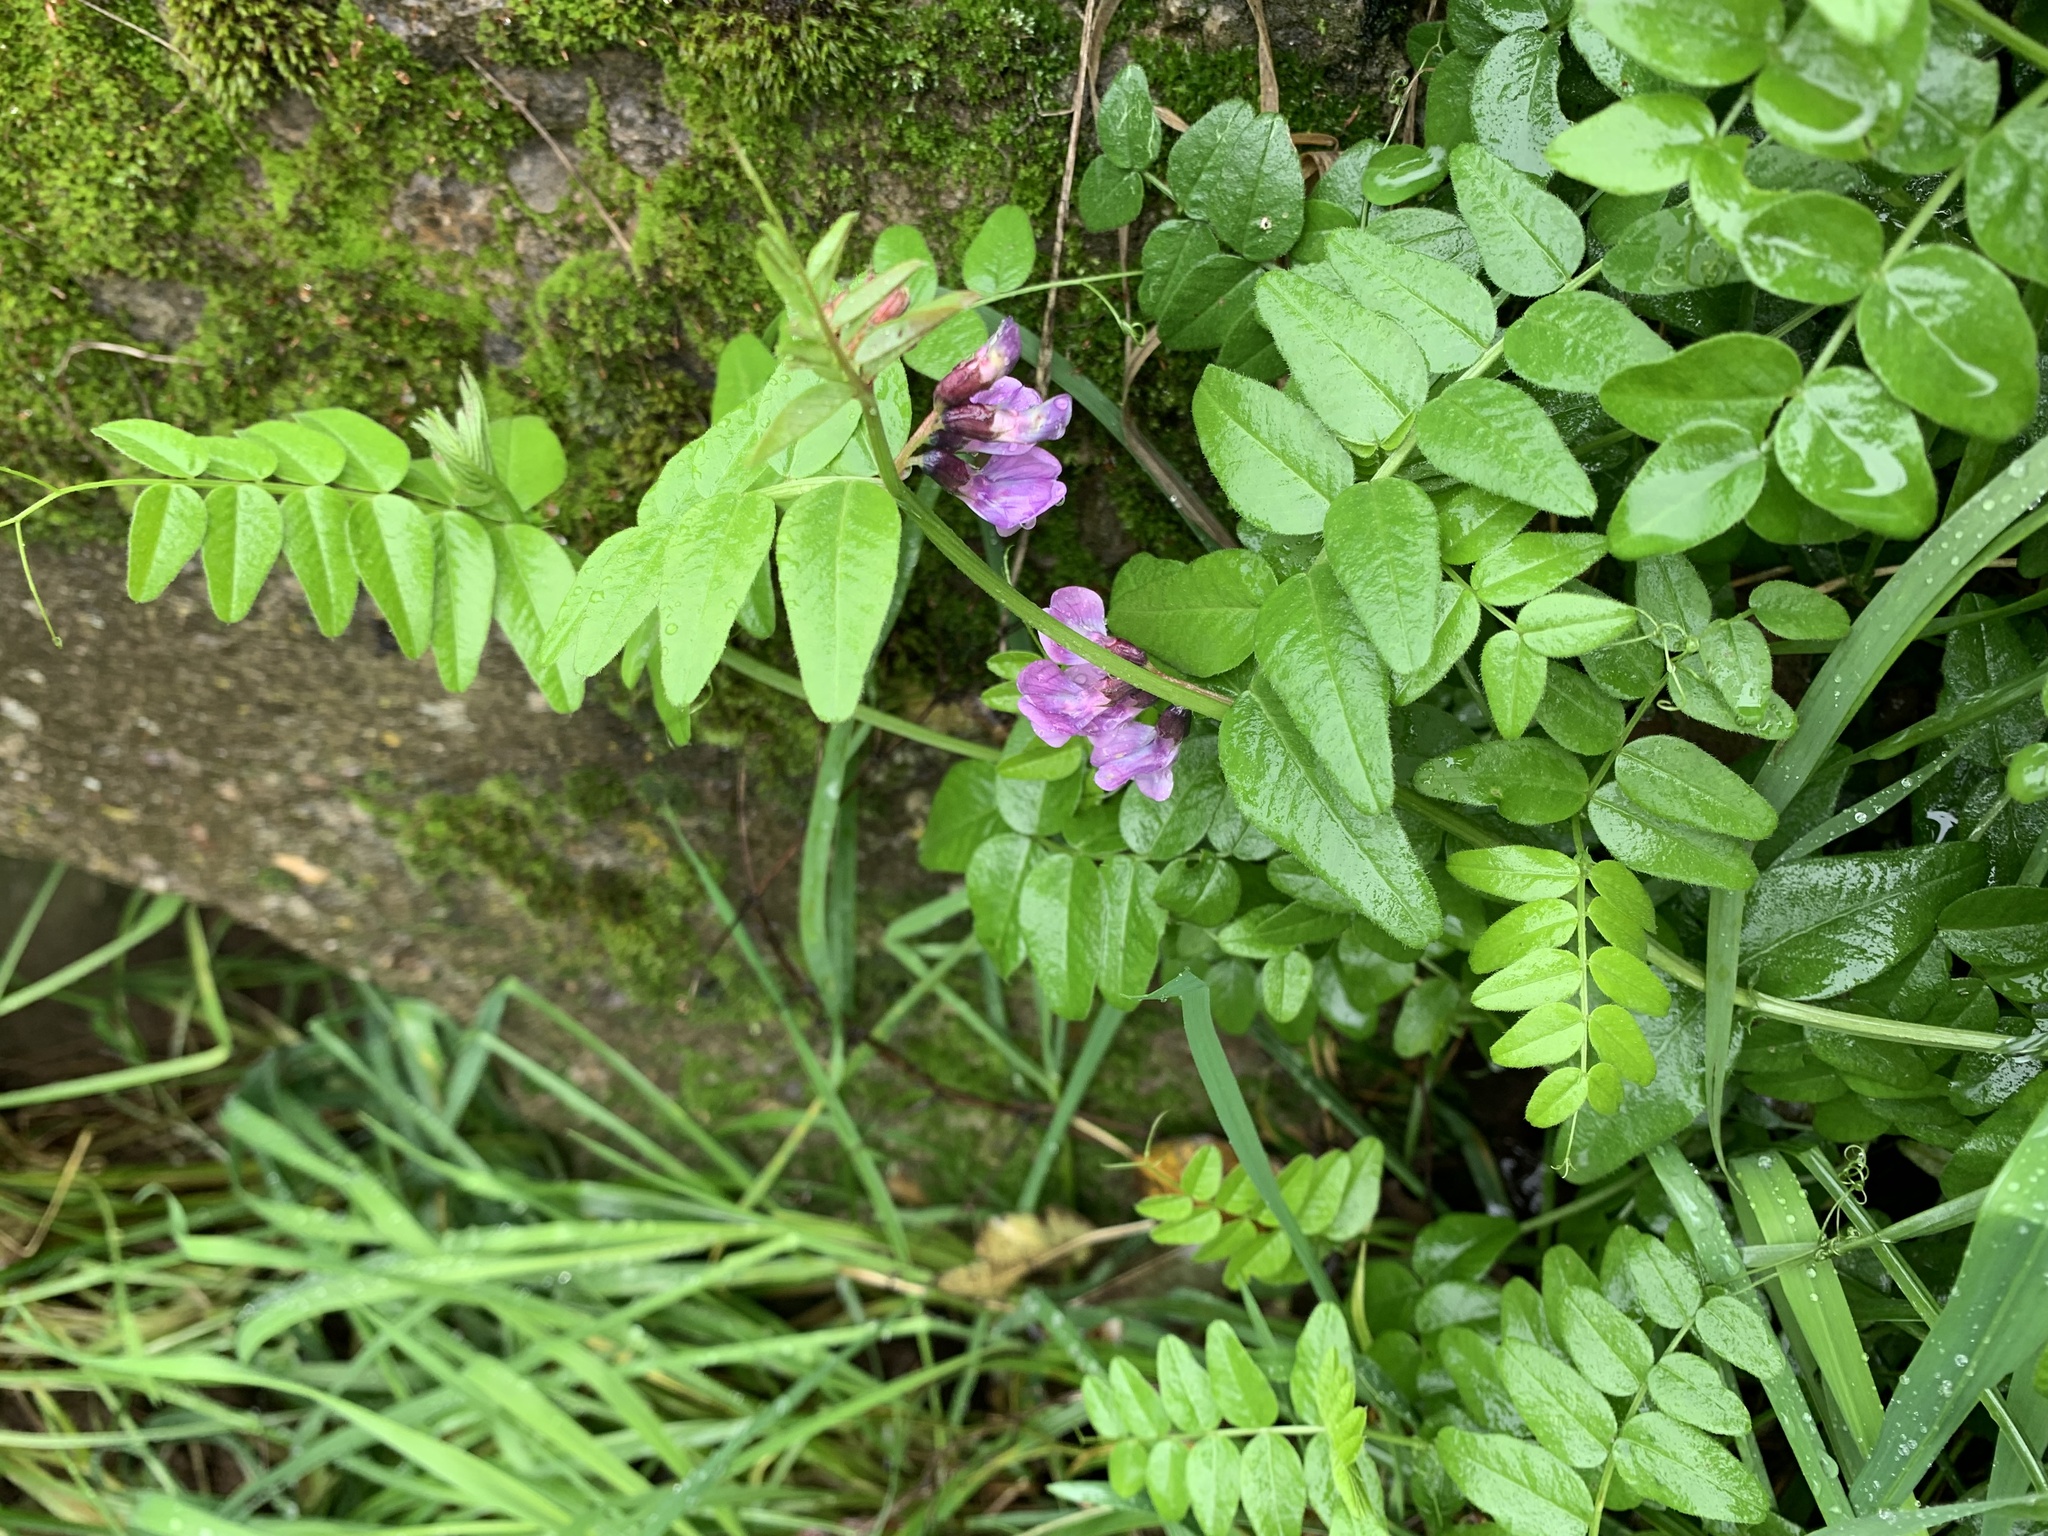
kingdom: Plantae
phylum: Tracheophyta
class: Magnoliopsida
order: Fabales
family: Fabaceae
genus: Vicia
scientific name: Vicia sepium
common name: Bush vetch
